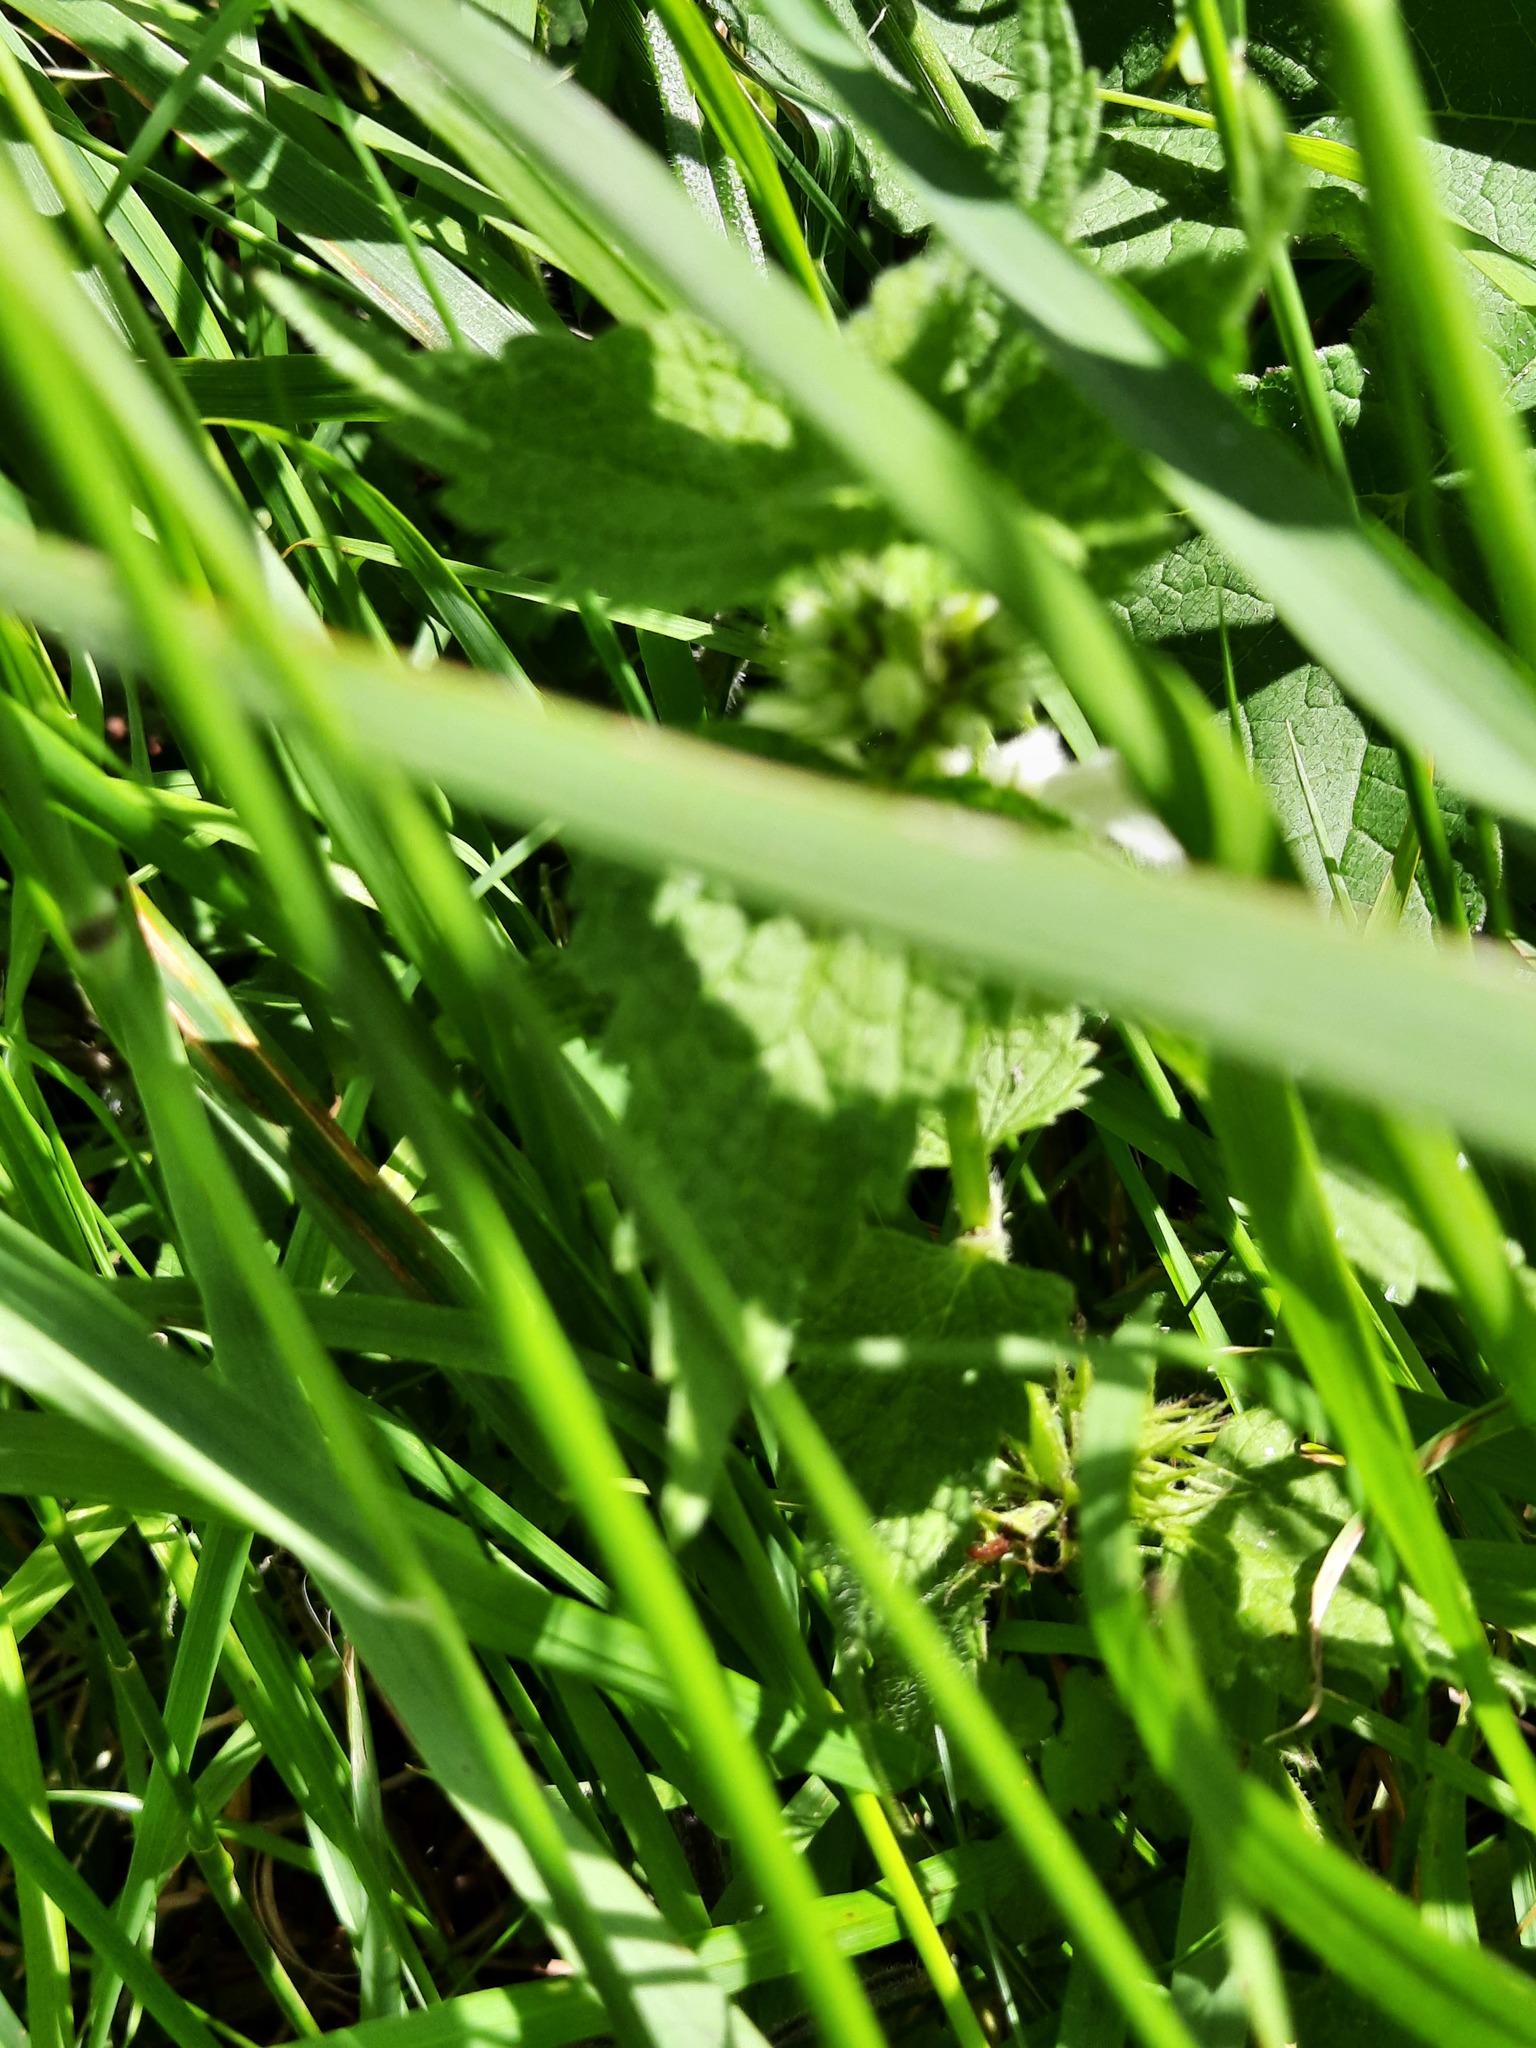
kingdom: Plantae
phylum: Tracheophyta
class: Magnoliopsida
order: Lamiales
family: Lamiaceae
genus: Lamium
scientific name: Lamium album
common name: White dead-nettle
